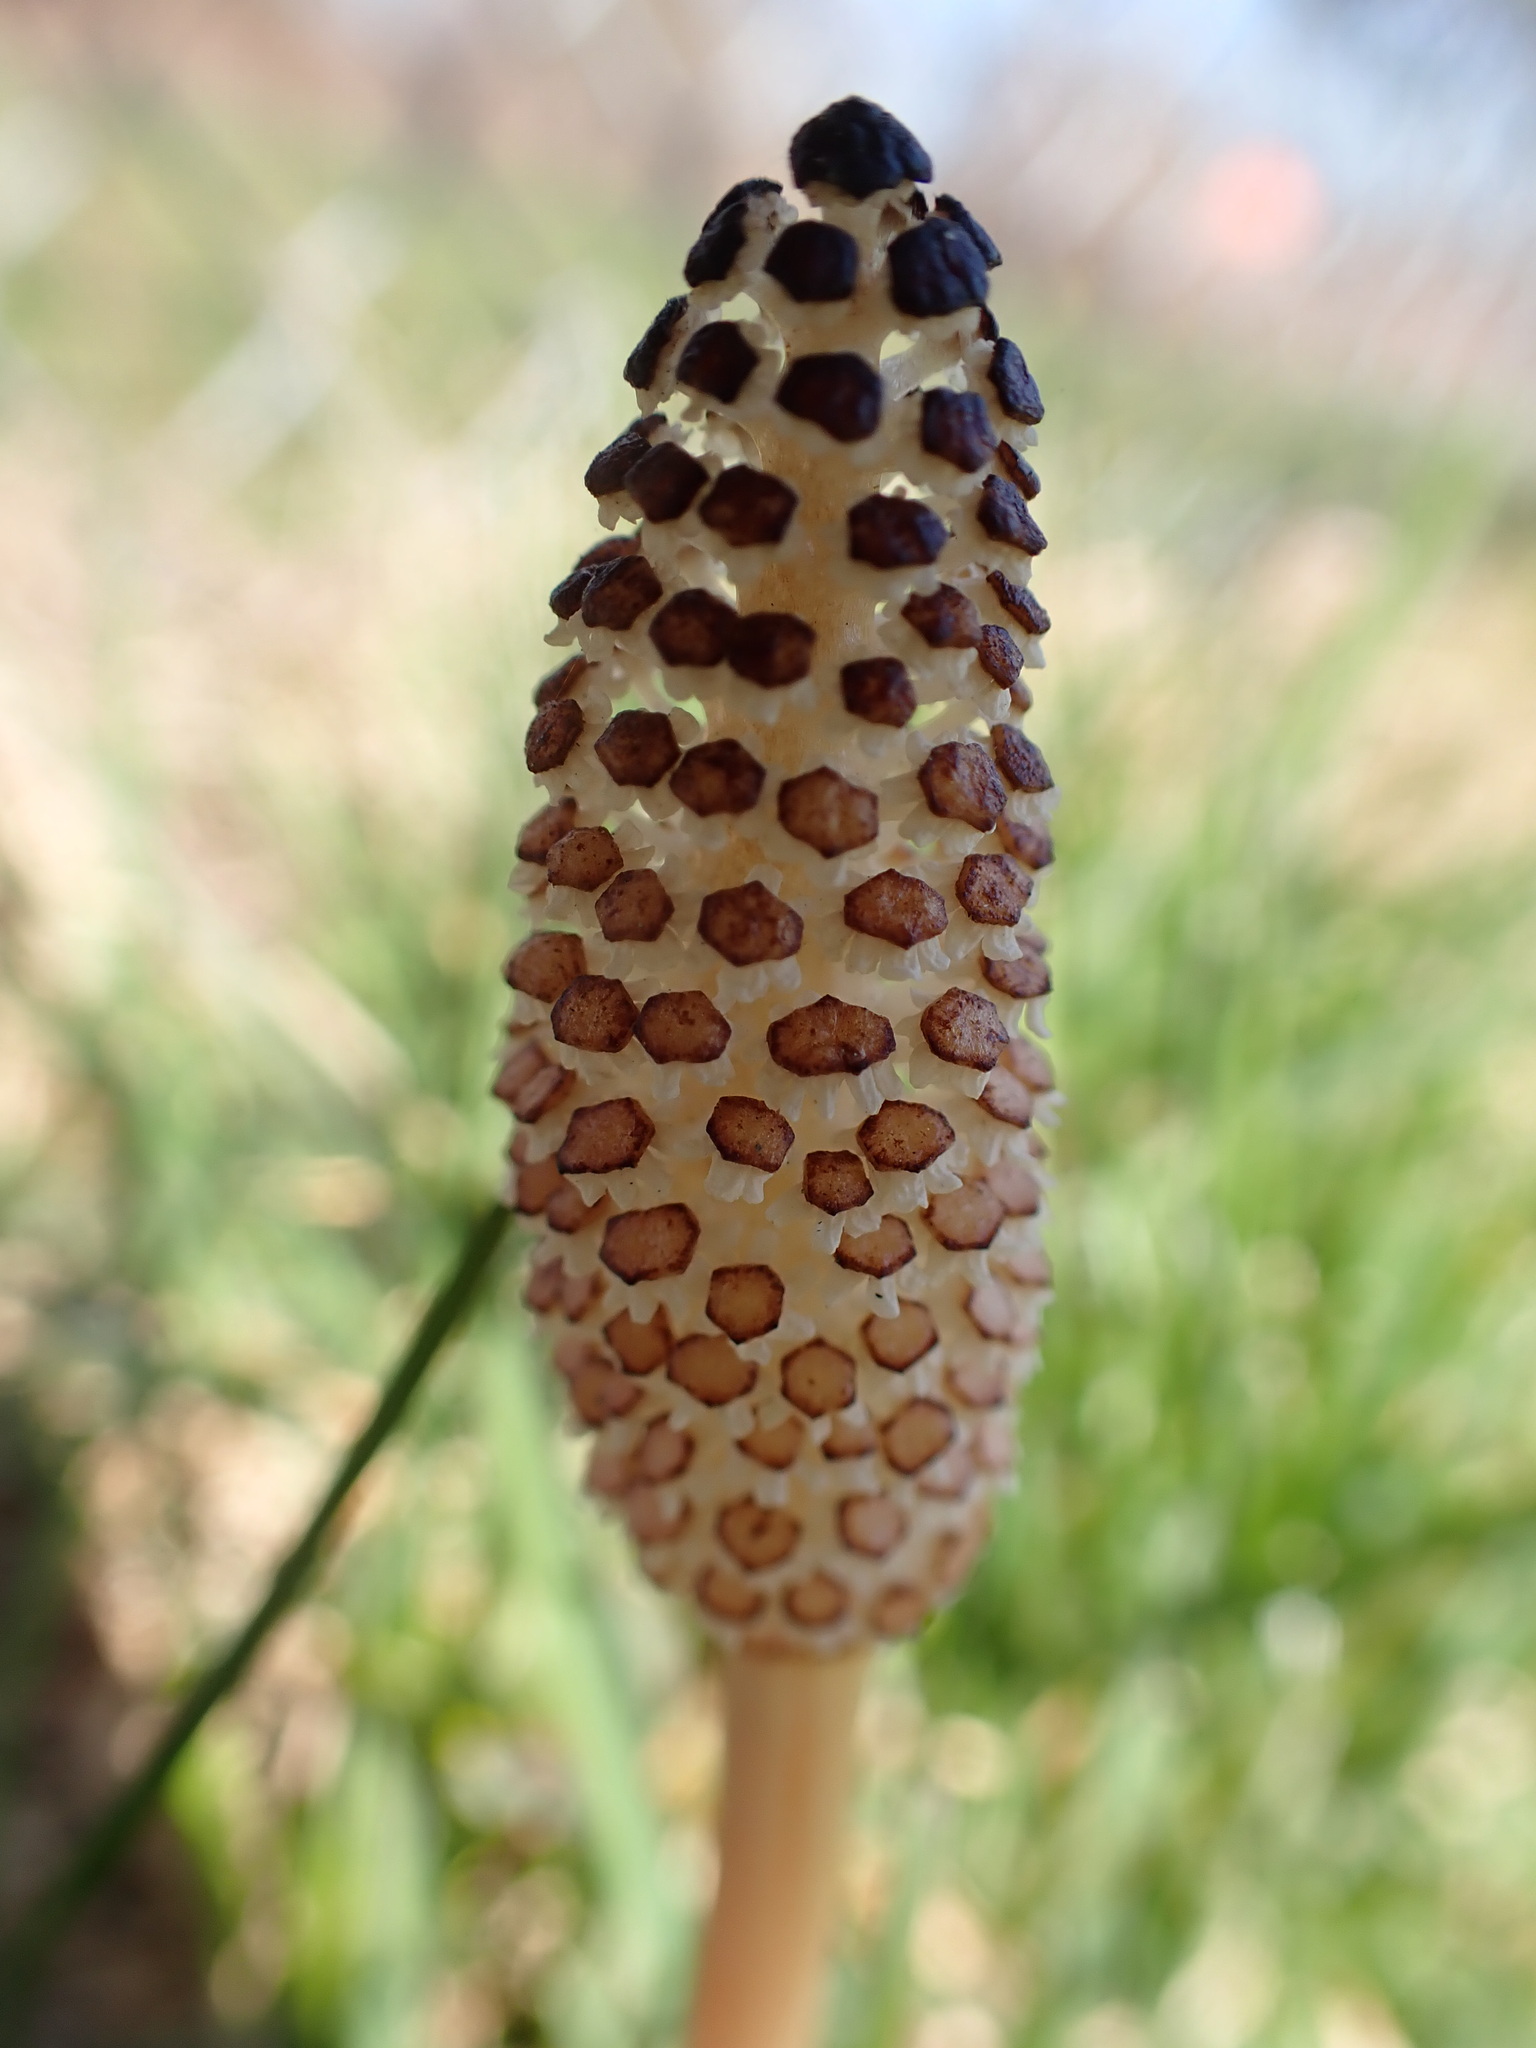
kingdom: Plantae
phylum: Tracheophyta
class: Polypodiopsida
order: Equisetales
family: Equisetaceae
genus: Equisetum
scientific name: Equisetum arvense
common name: Field horsetail
